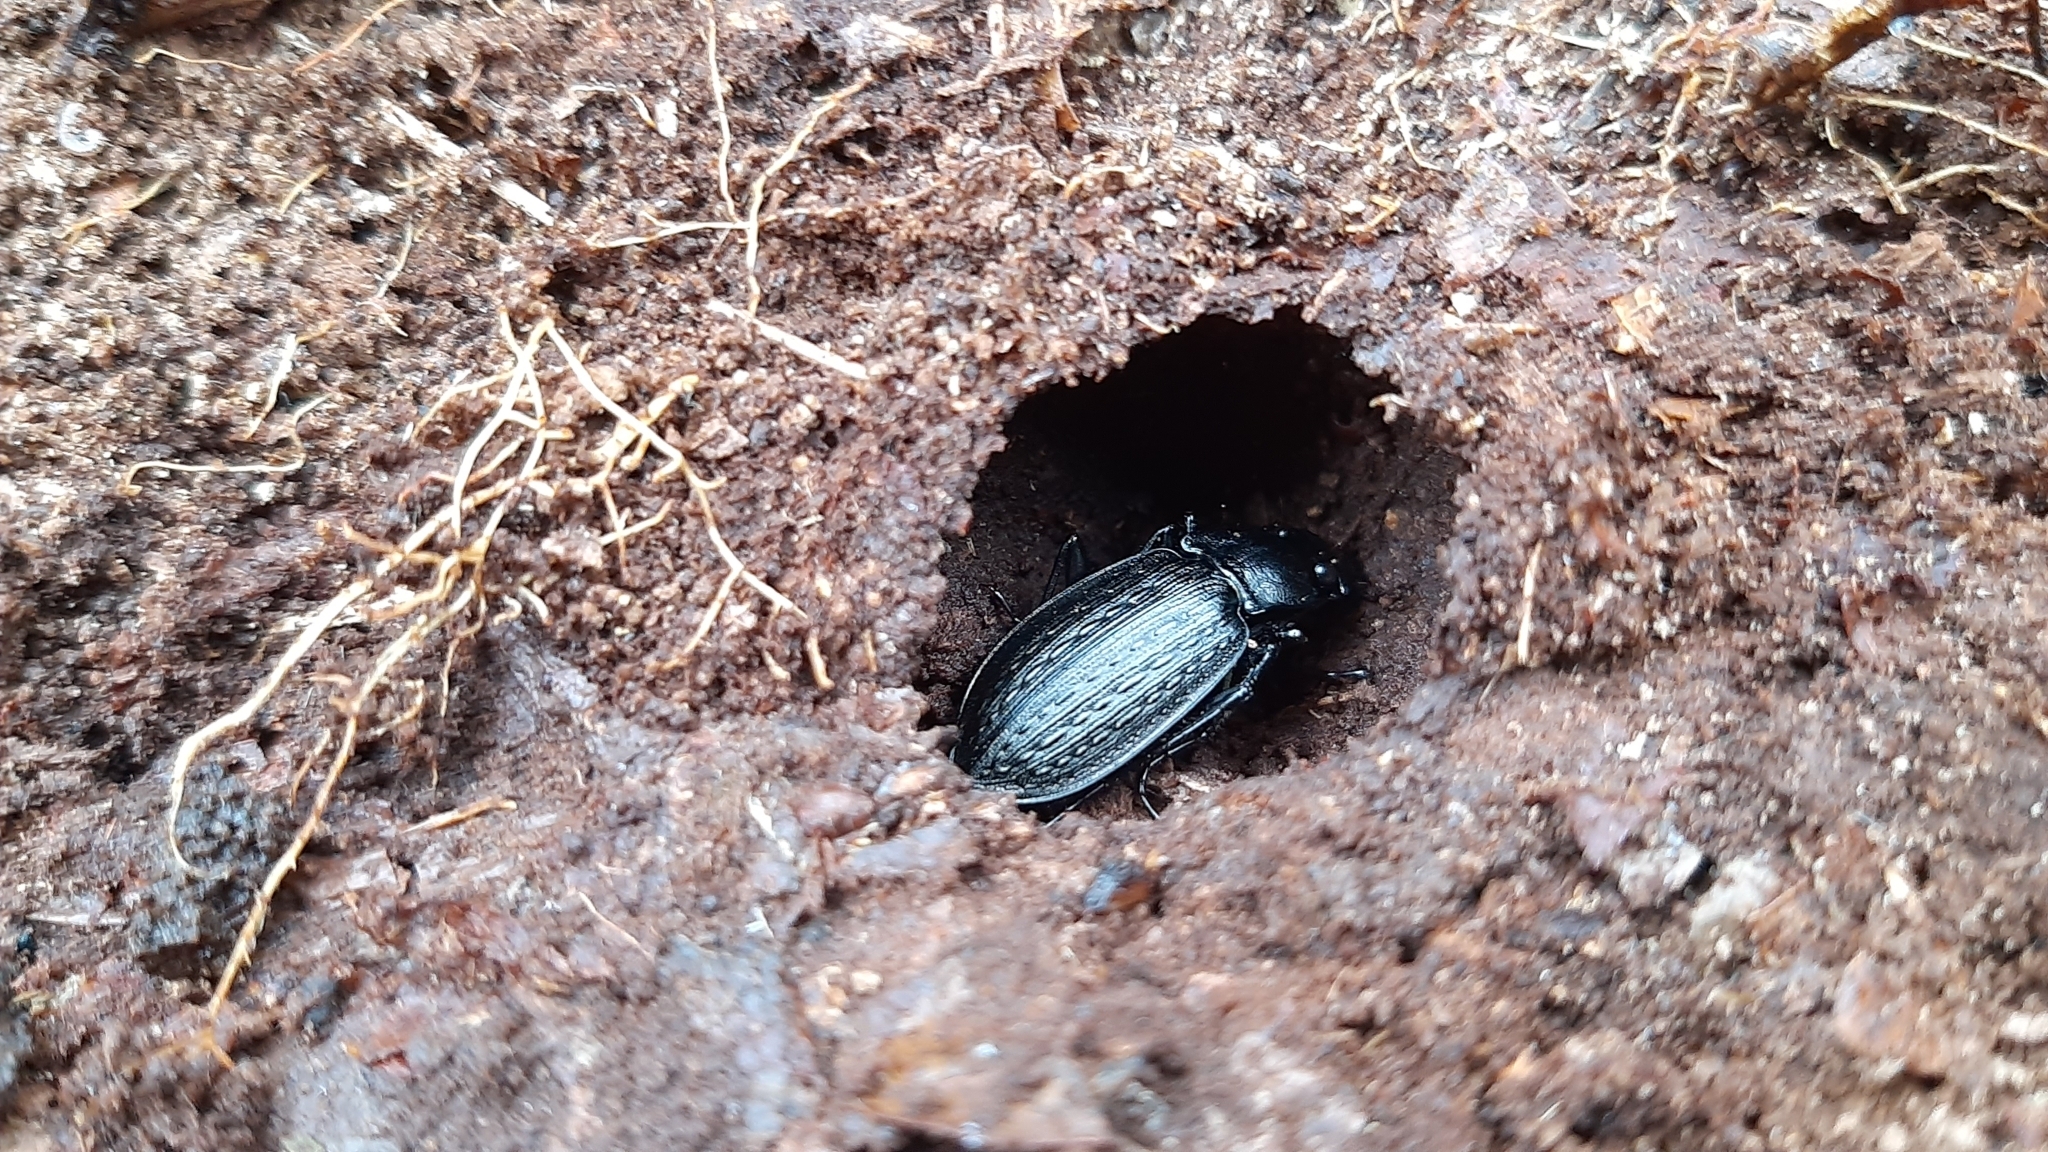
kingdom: Animalia
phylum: Arthropoda
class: Insecta
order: Coleoptera
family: Carabidae
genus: Carabus
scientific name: Carabus granulatus
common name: Granulate ground beetle
